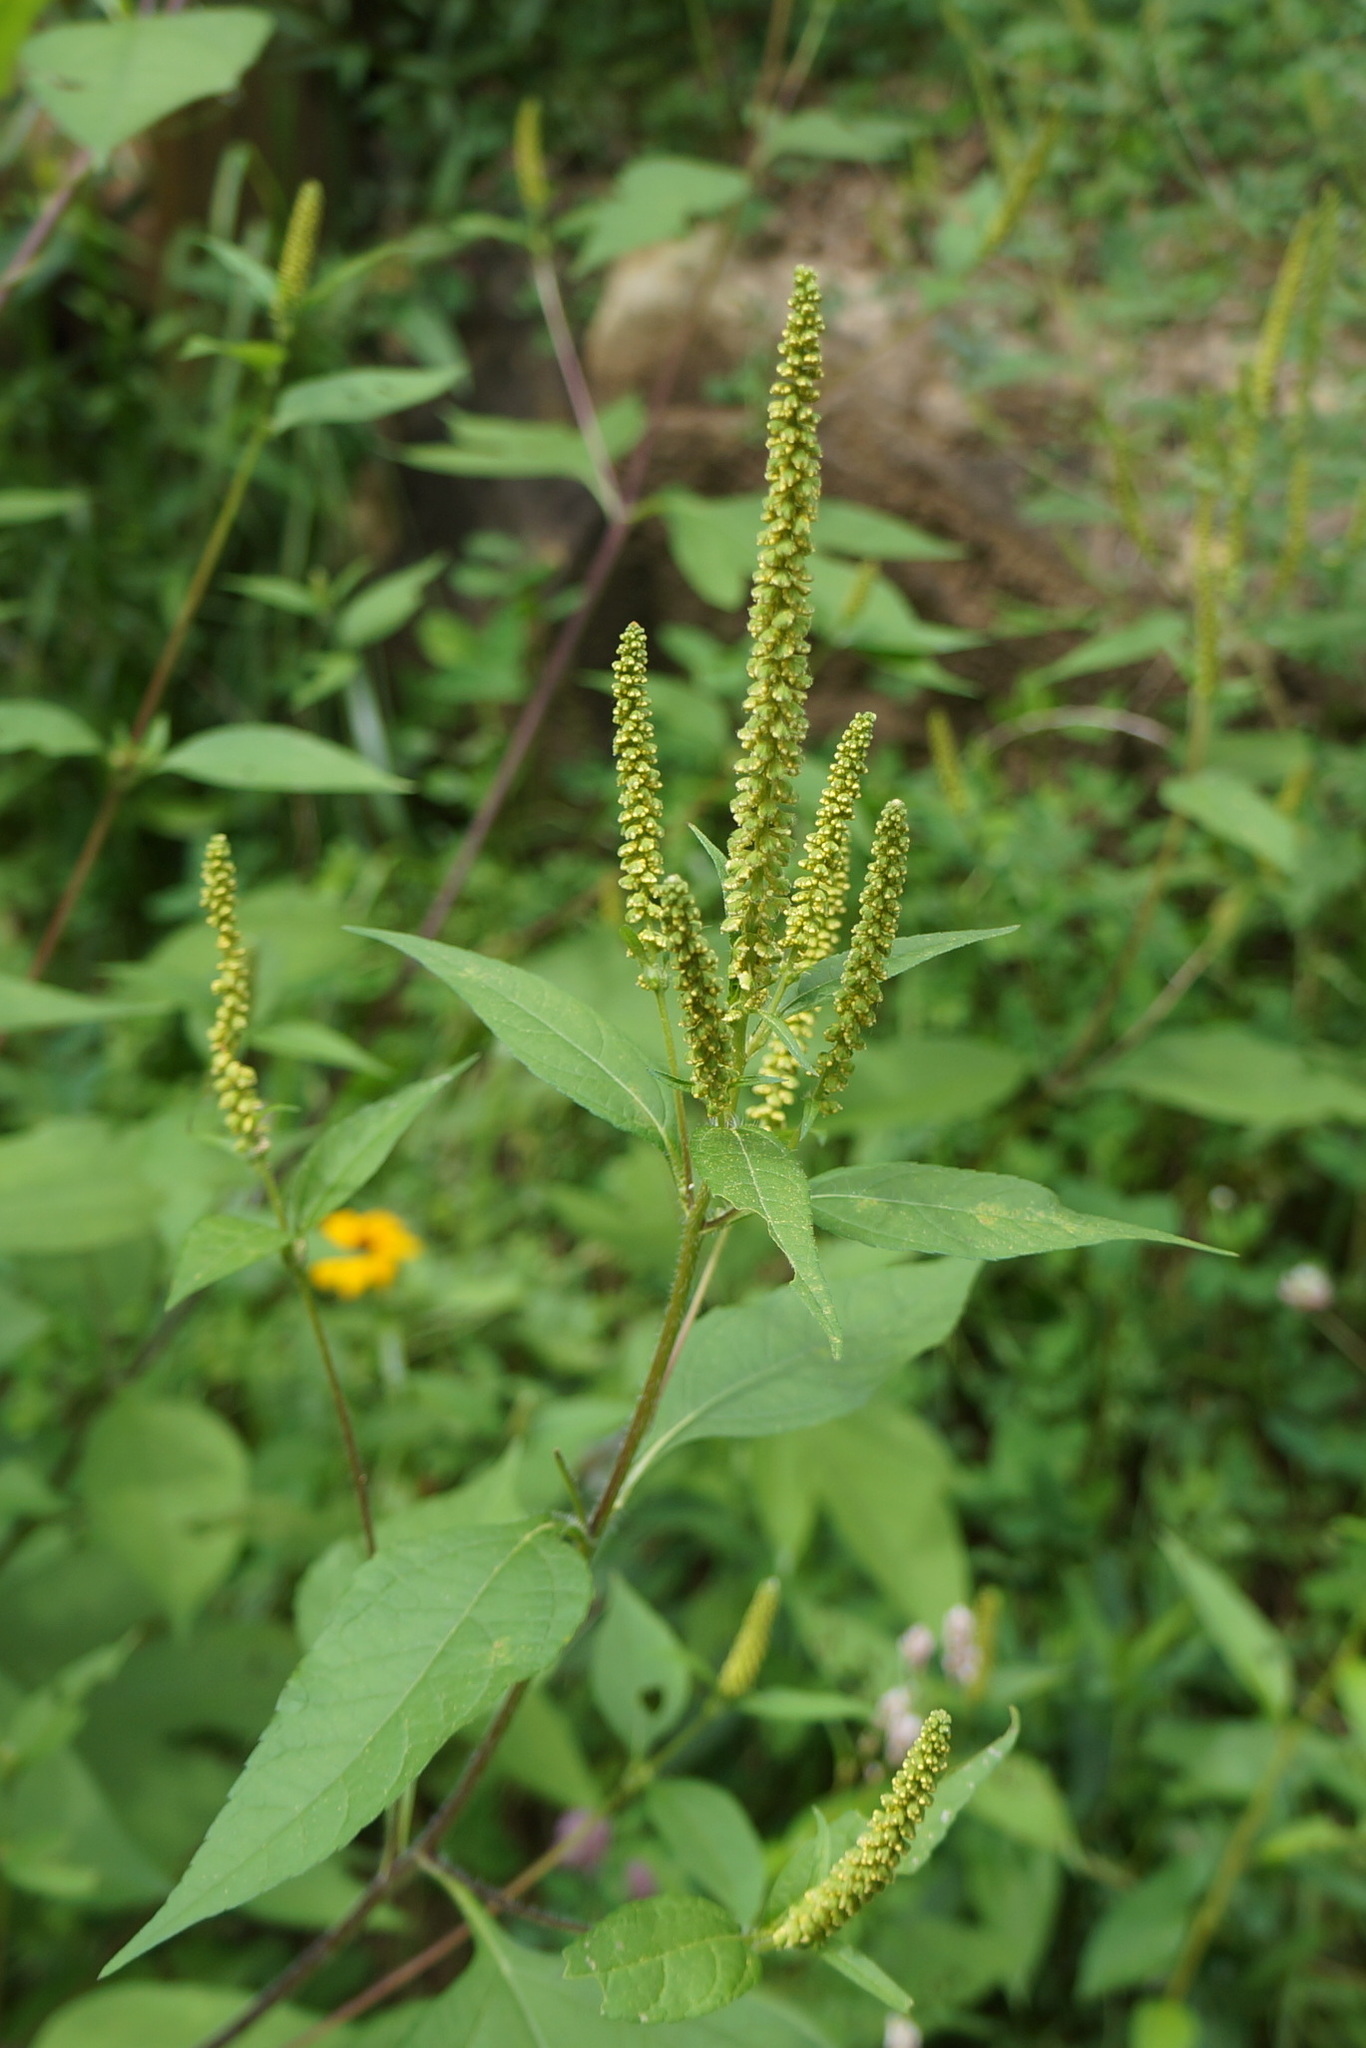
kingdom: Plantae
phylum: Tracheophyta
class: Magnoliopsida
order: Asterales
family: Asteraceae
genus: Ambrosia
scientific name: Ambrosia trifida
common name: Giant ragweed
